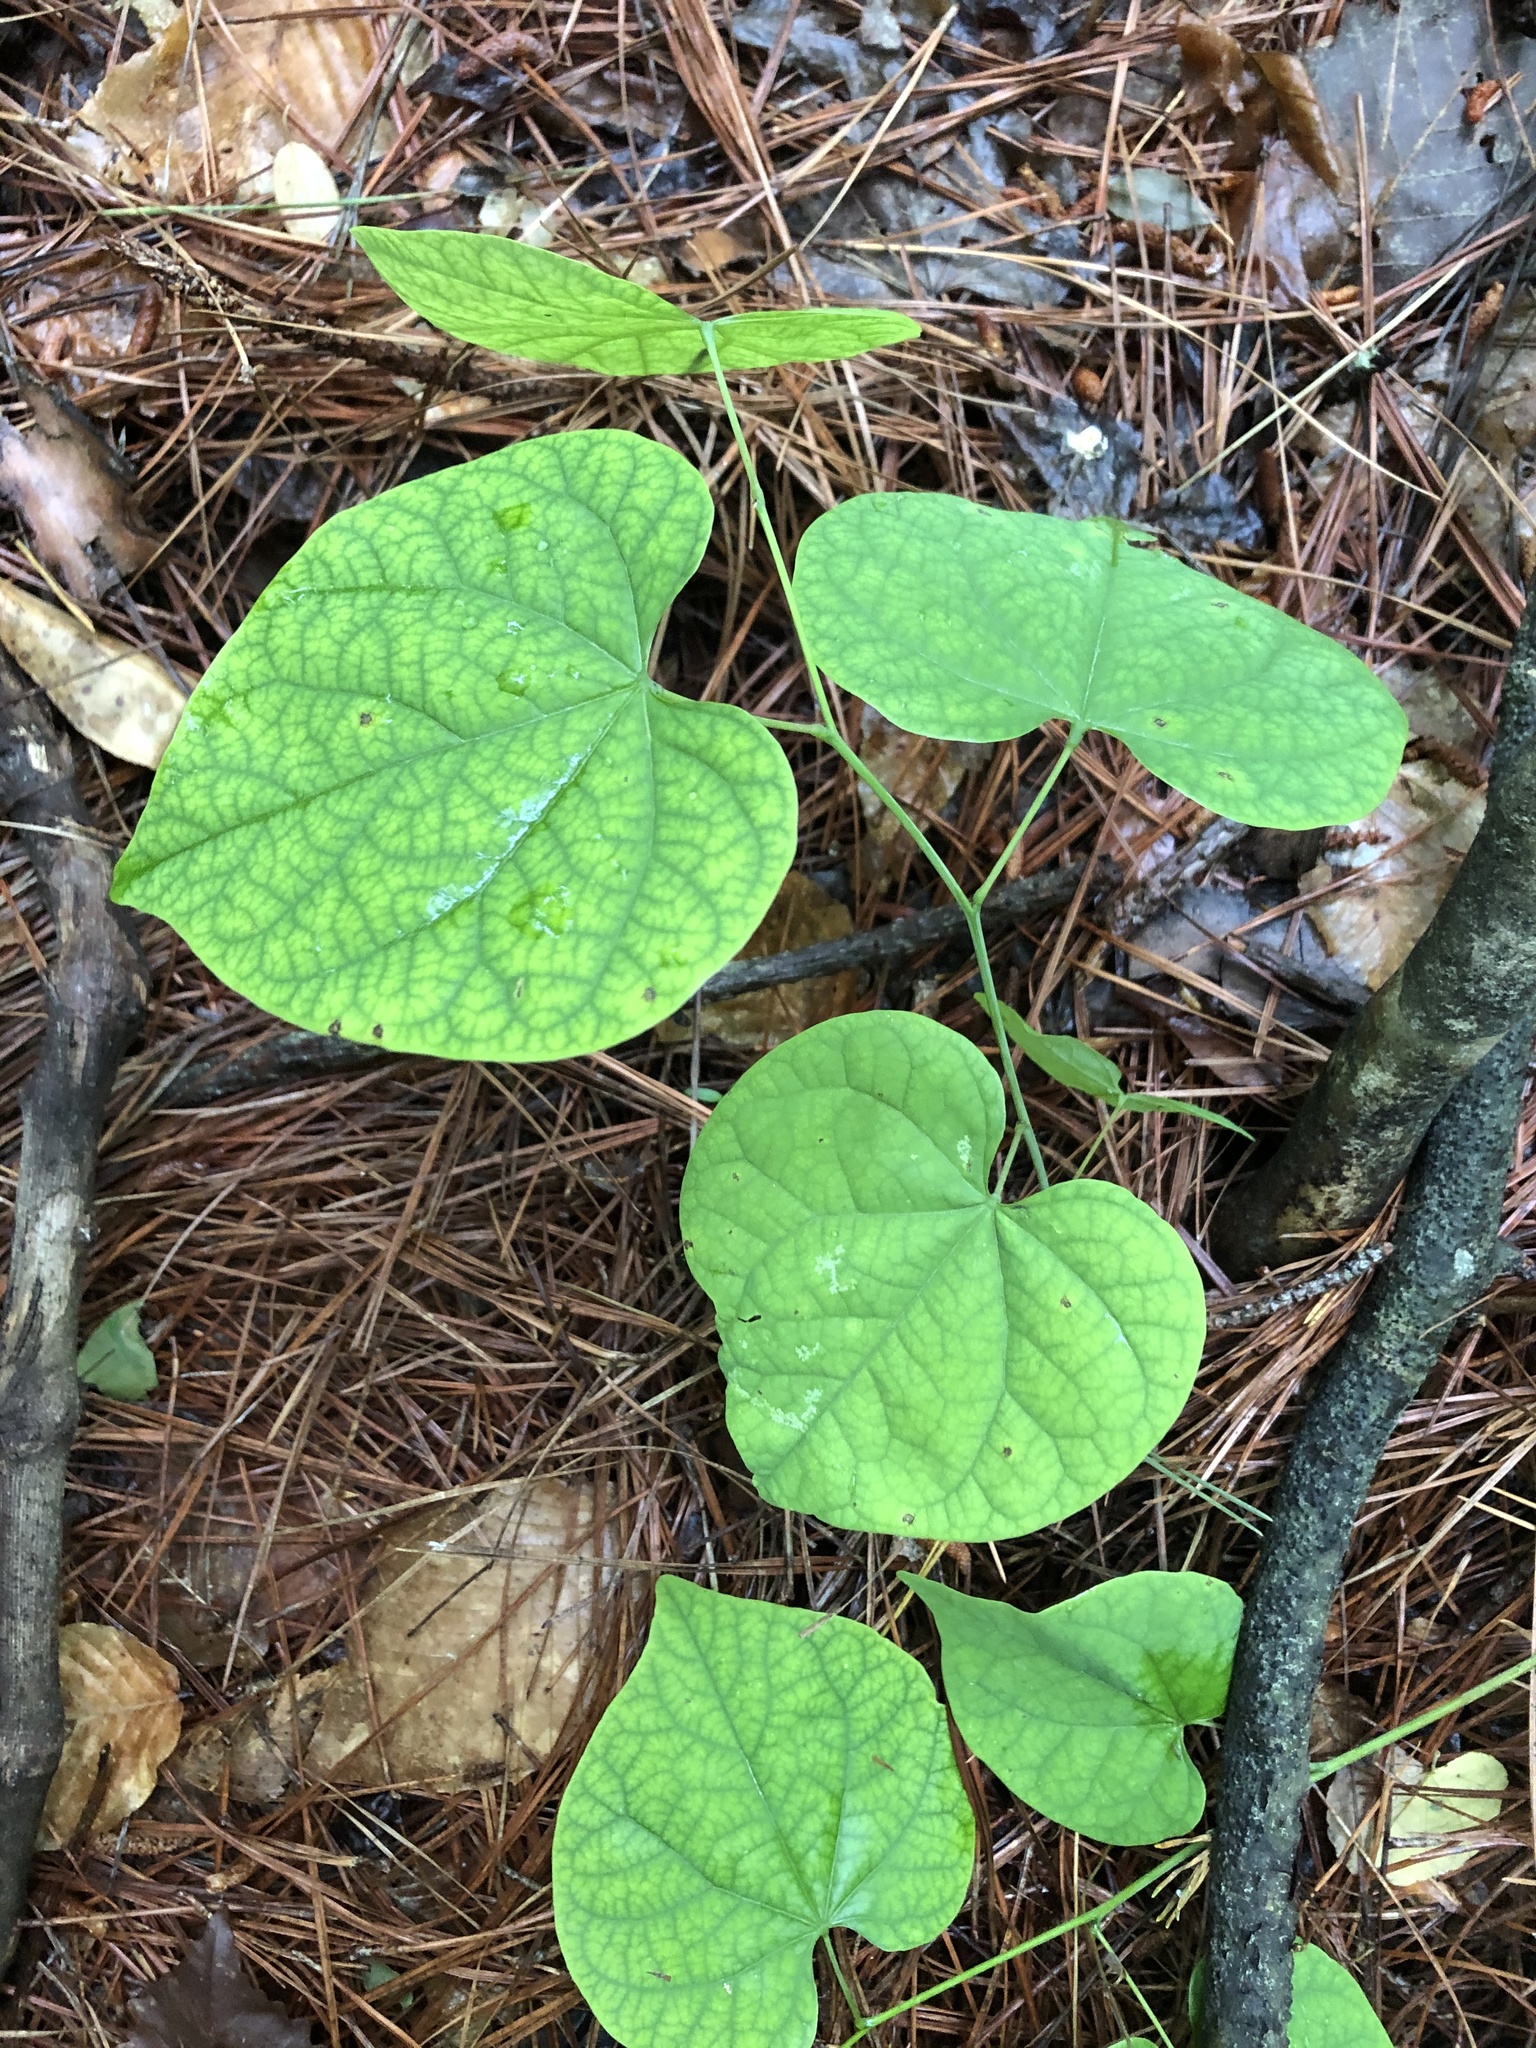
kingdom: Plantae
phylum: Tracheophyta
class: Magnoliopsida
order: Fabales
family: Fabaceae
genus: Cercis
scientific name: Cercis canadensis
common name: Eastern redbud
